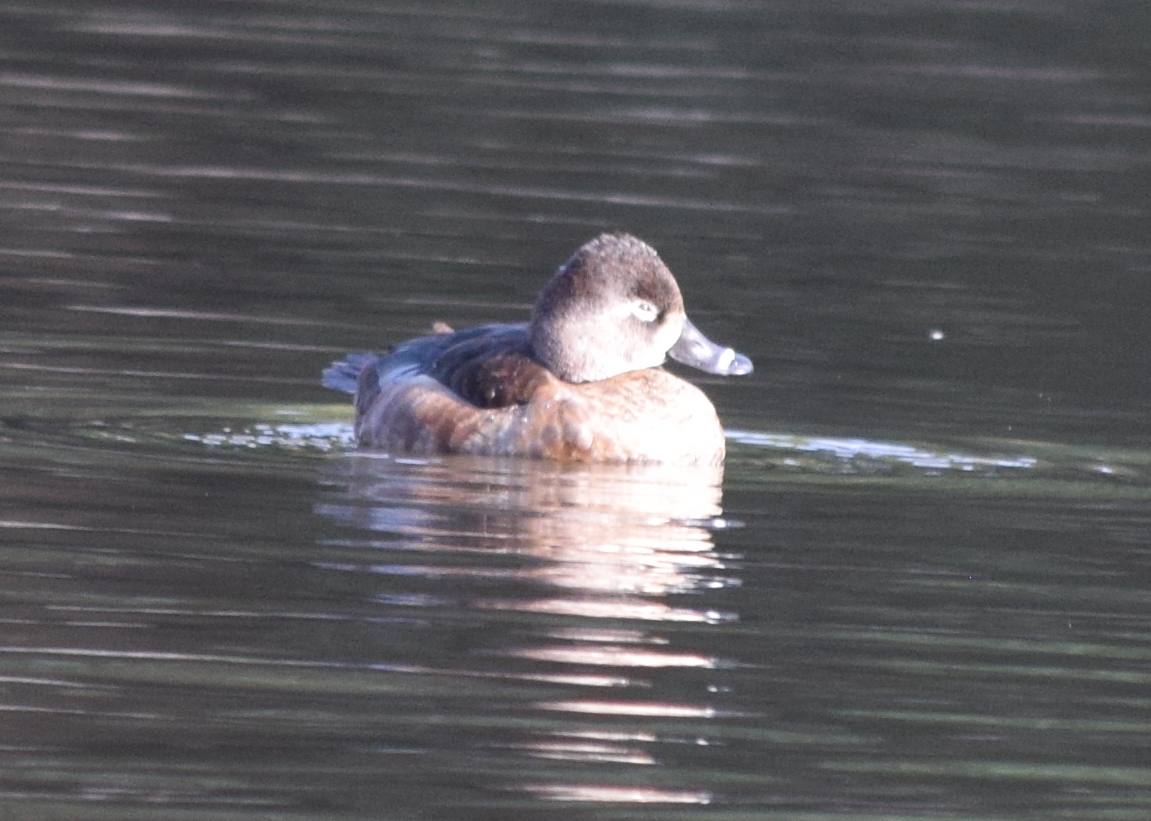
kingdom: Animalia
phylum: Chordata
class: Aves
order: Anseriformes
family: Anatidae
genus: Aythya
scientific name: Aythya collaris
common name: Ring-necked duck
